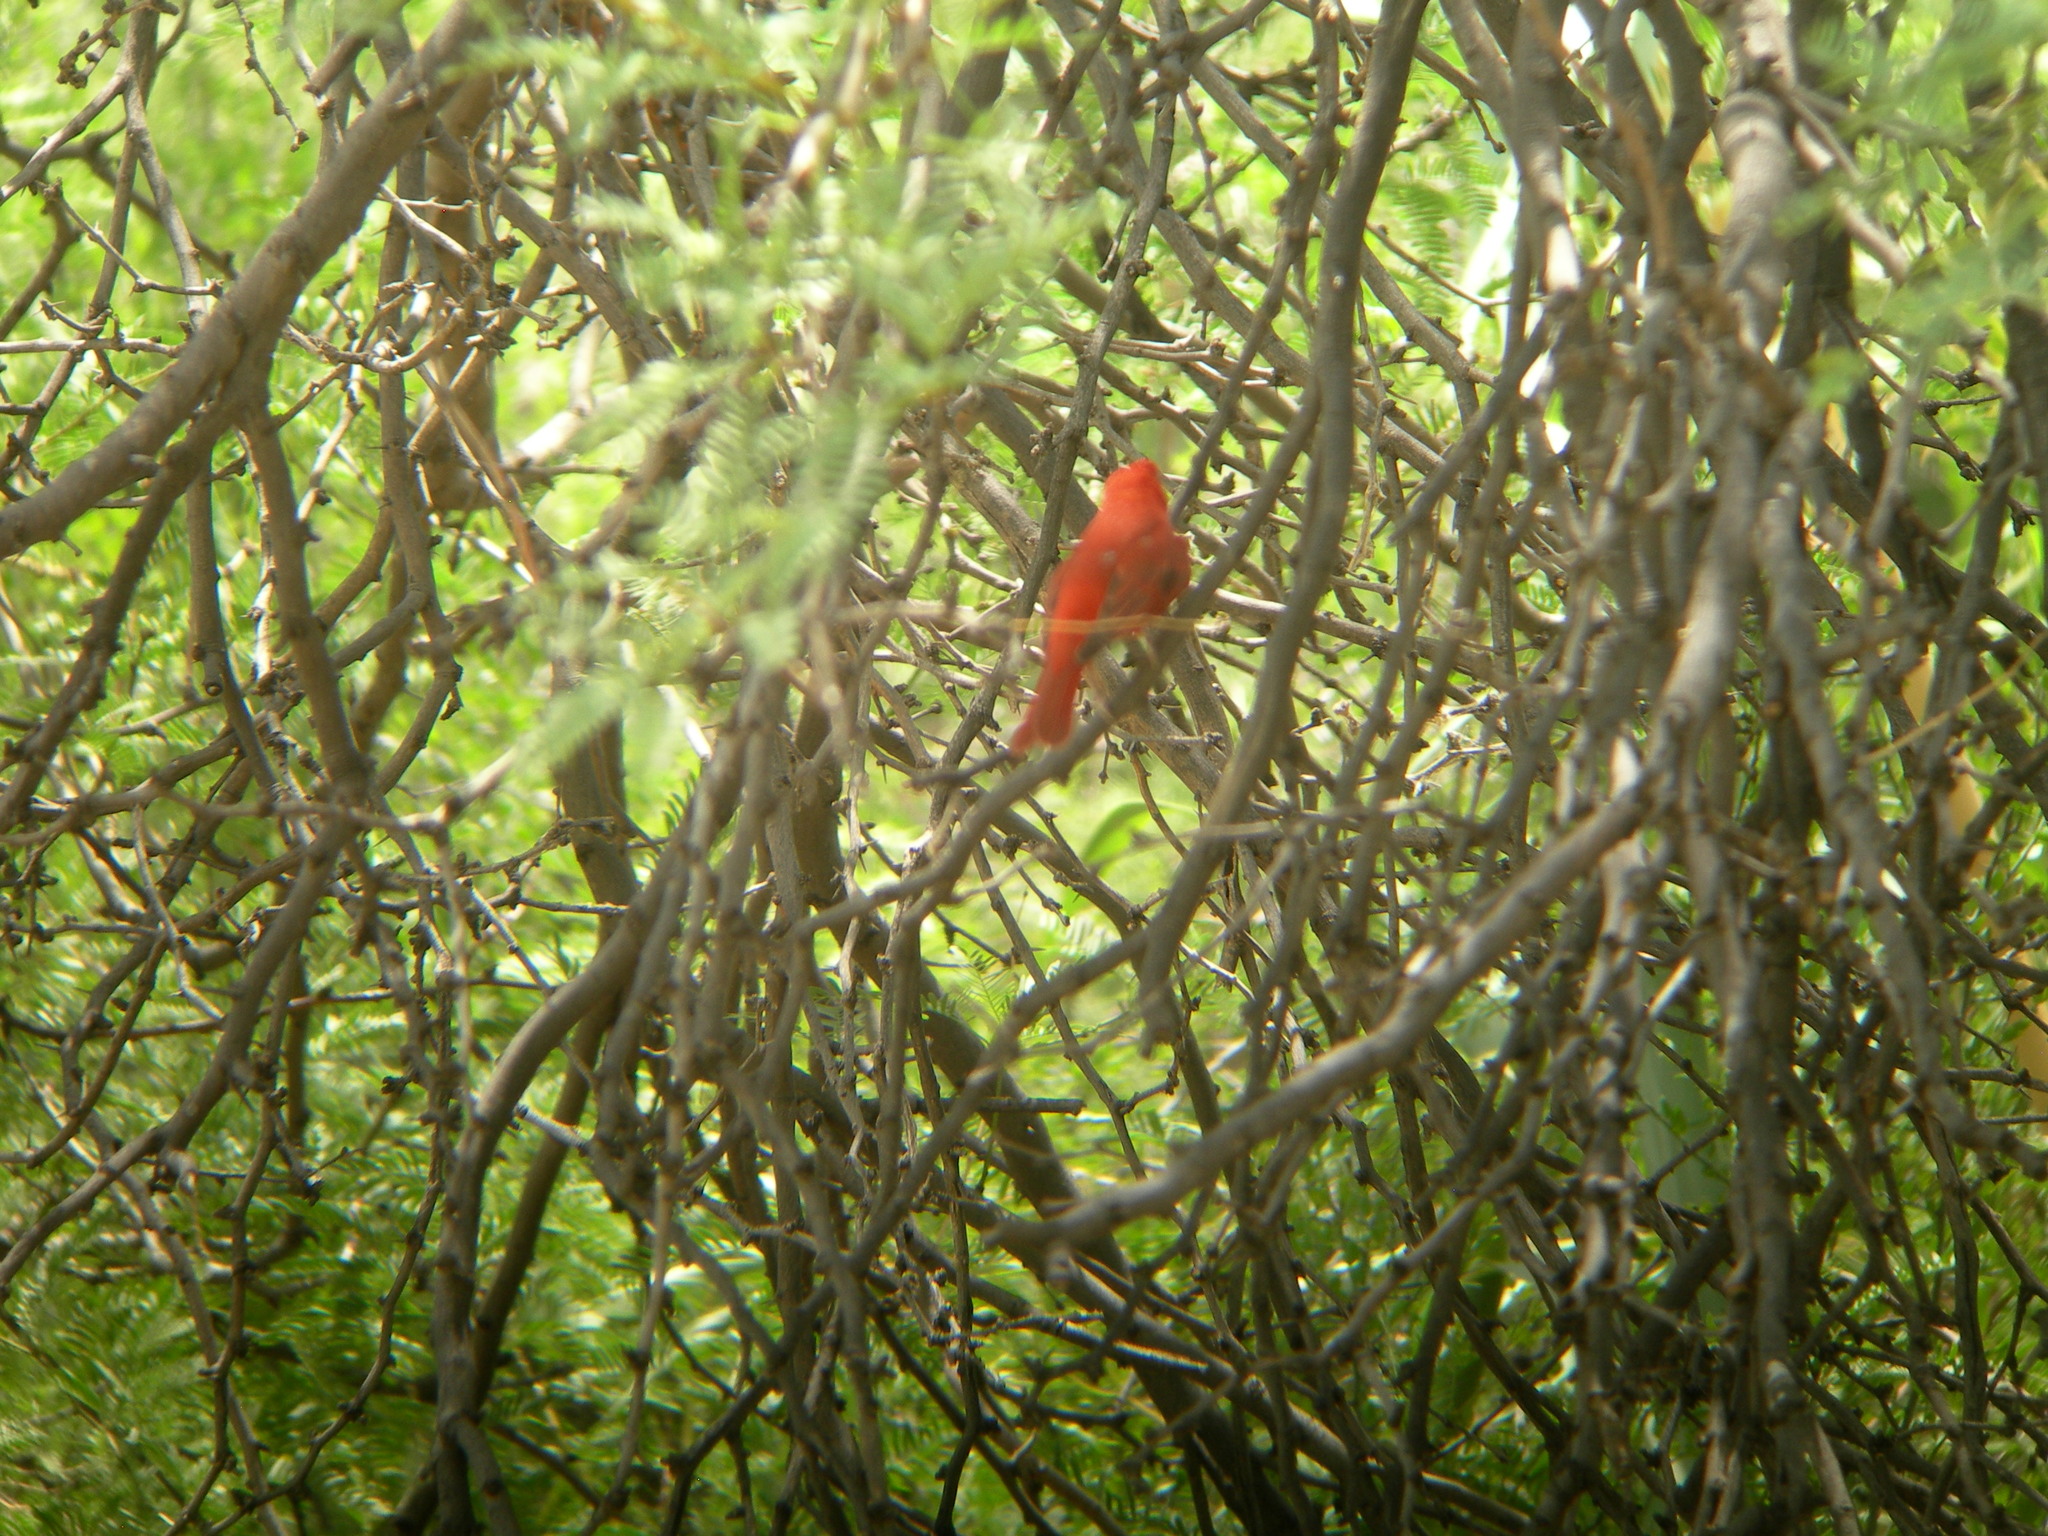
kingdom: Animalia
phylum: Chordata
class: Aves
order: Passeriformes
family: Cardinalidae
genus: Piranga
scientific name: Piranga rubra
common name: Summer tanager
